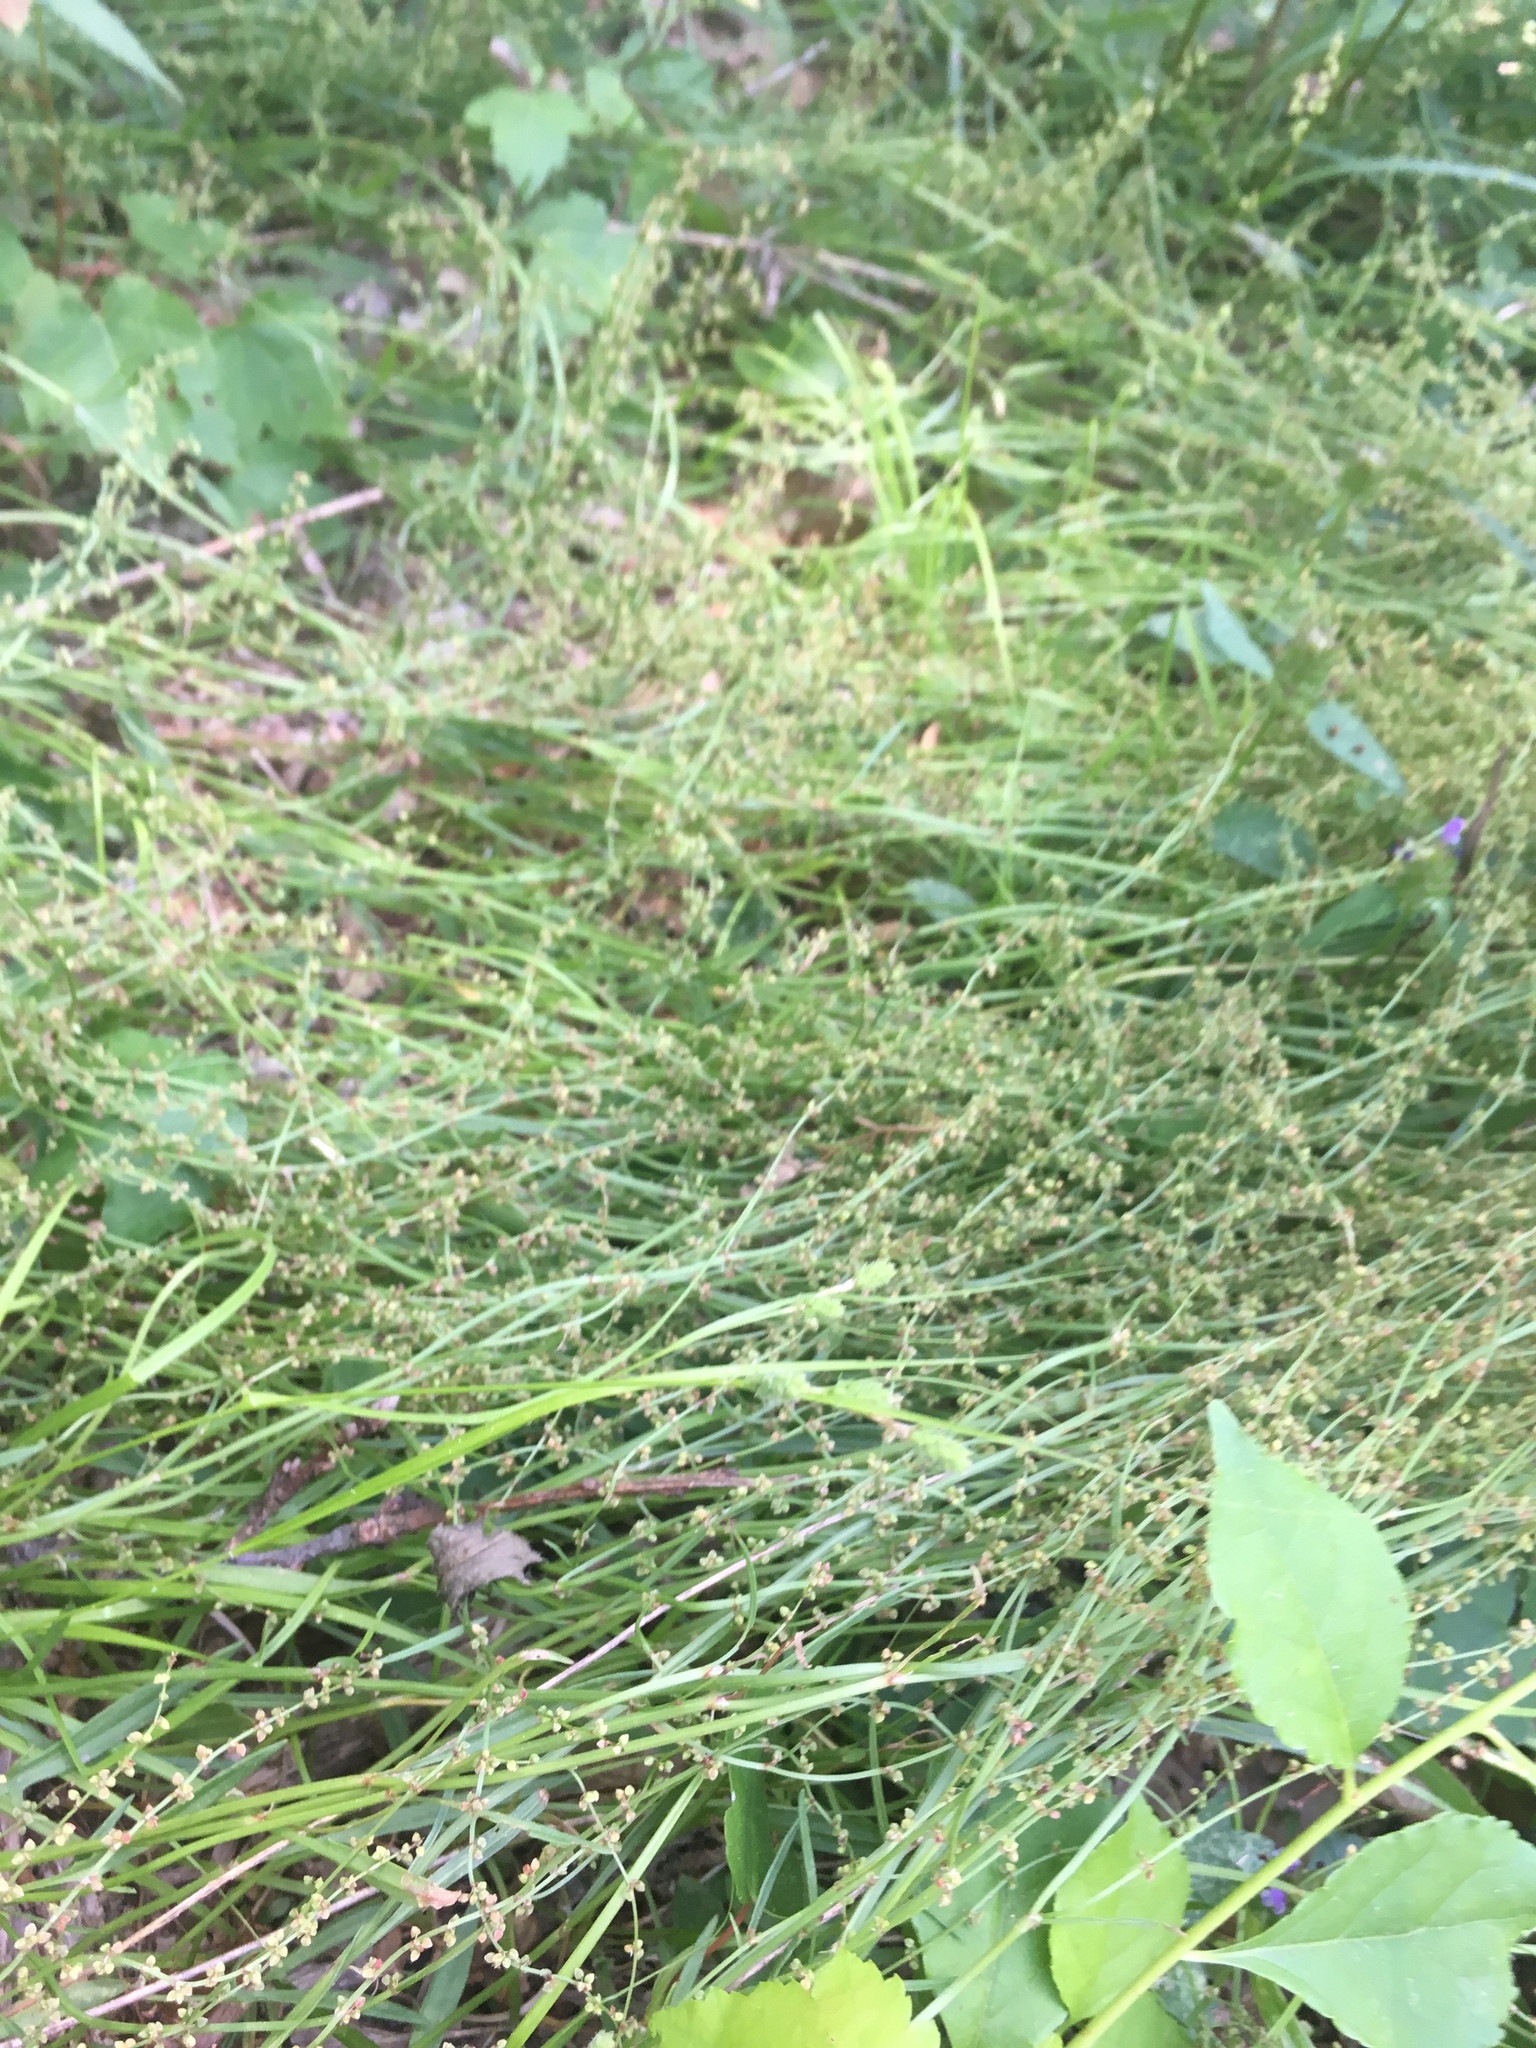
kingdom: Plantae
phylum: Tracheophyta
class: Magnoliopsida
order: Caryophyllales
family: Polygonaceae
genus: Rumex
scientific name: Rumex acetosella
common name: Common sheep sorrel
